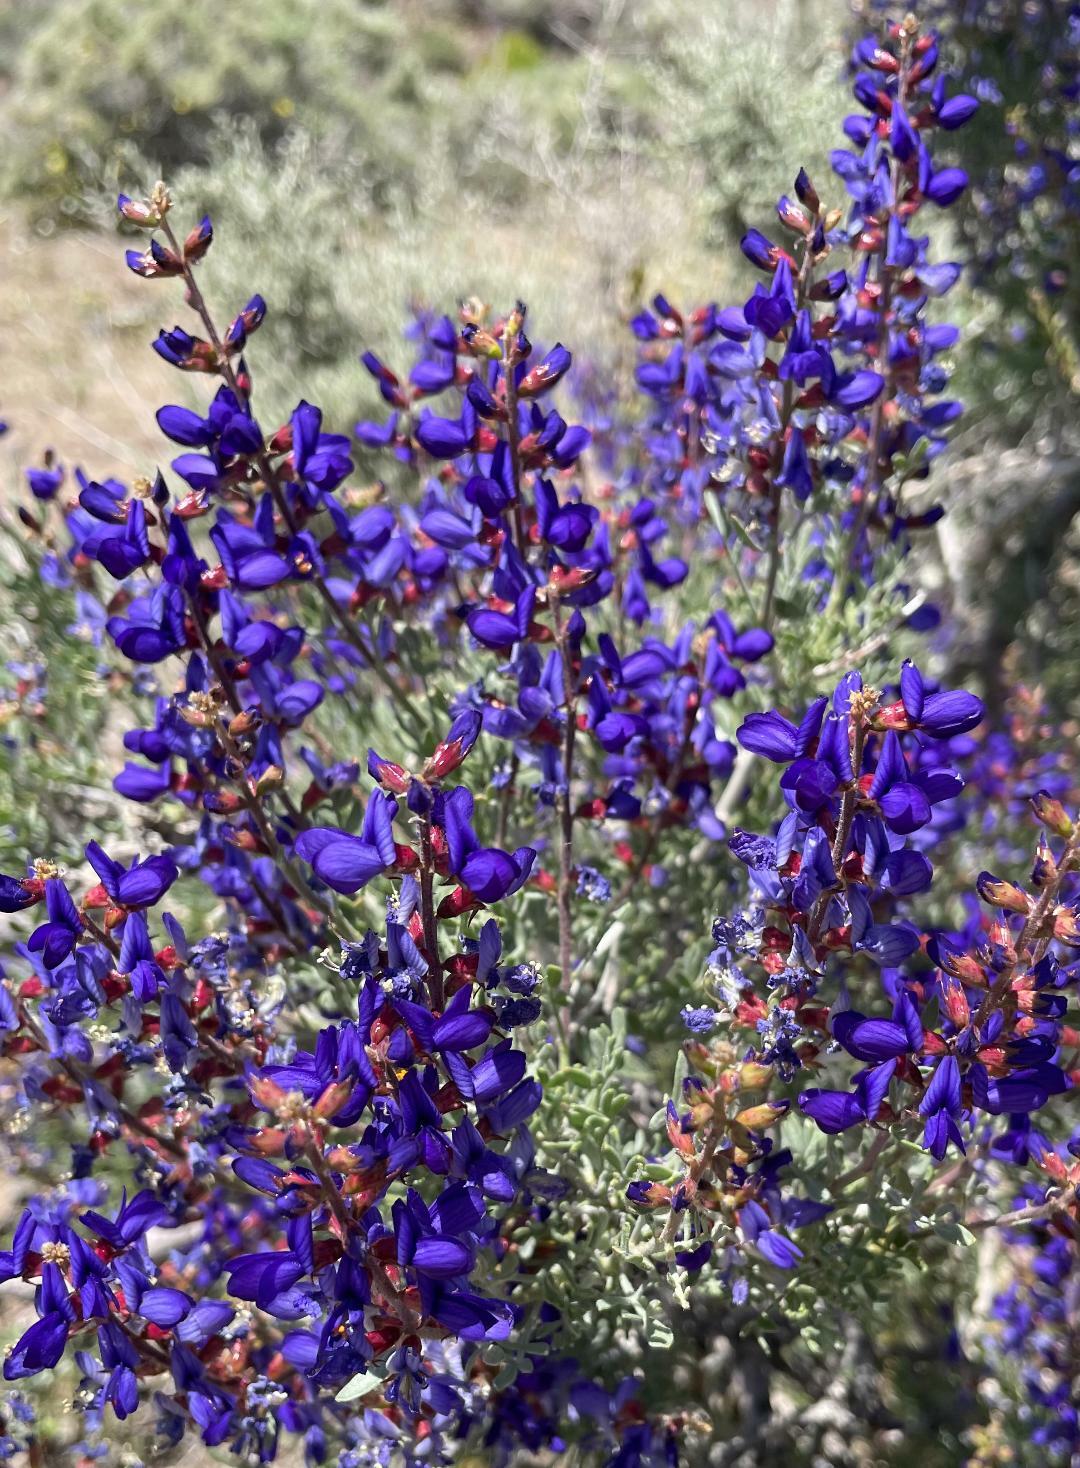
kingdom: Plantae
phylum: Tracheophyta
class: Magnoliopsida
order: Fabales
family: Fabaceae
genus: Psorothamnus
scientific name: Psorothamnus arborescens
